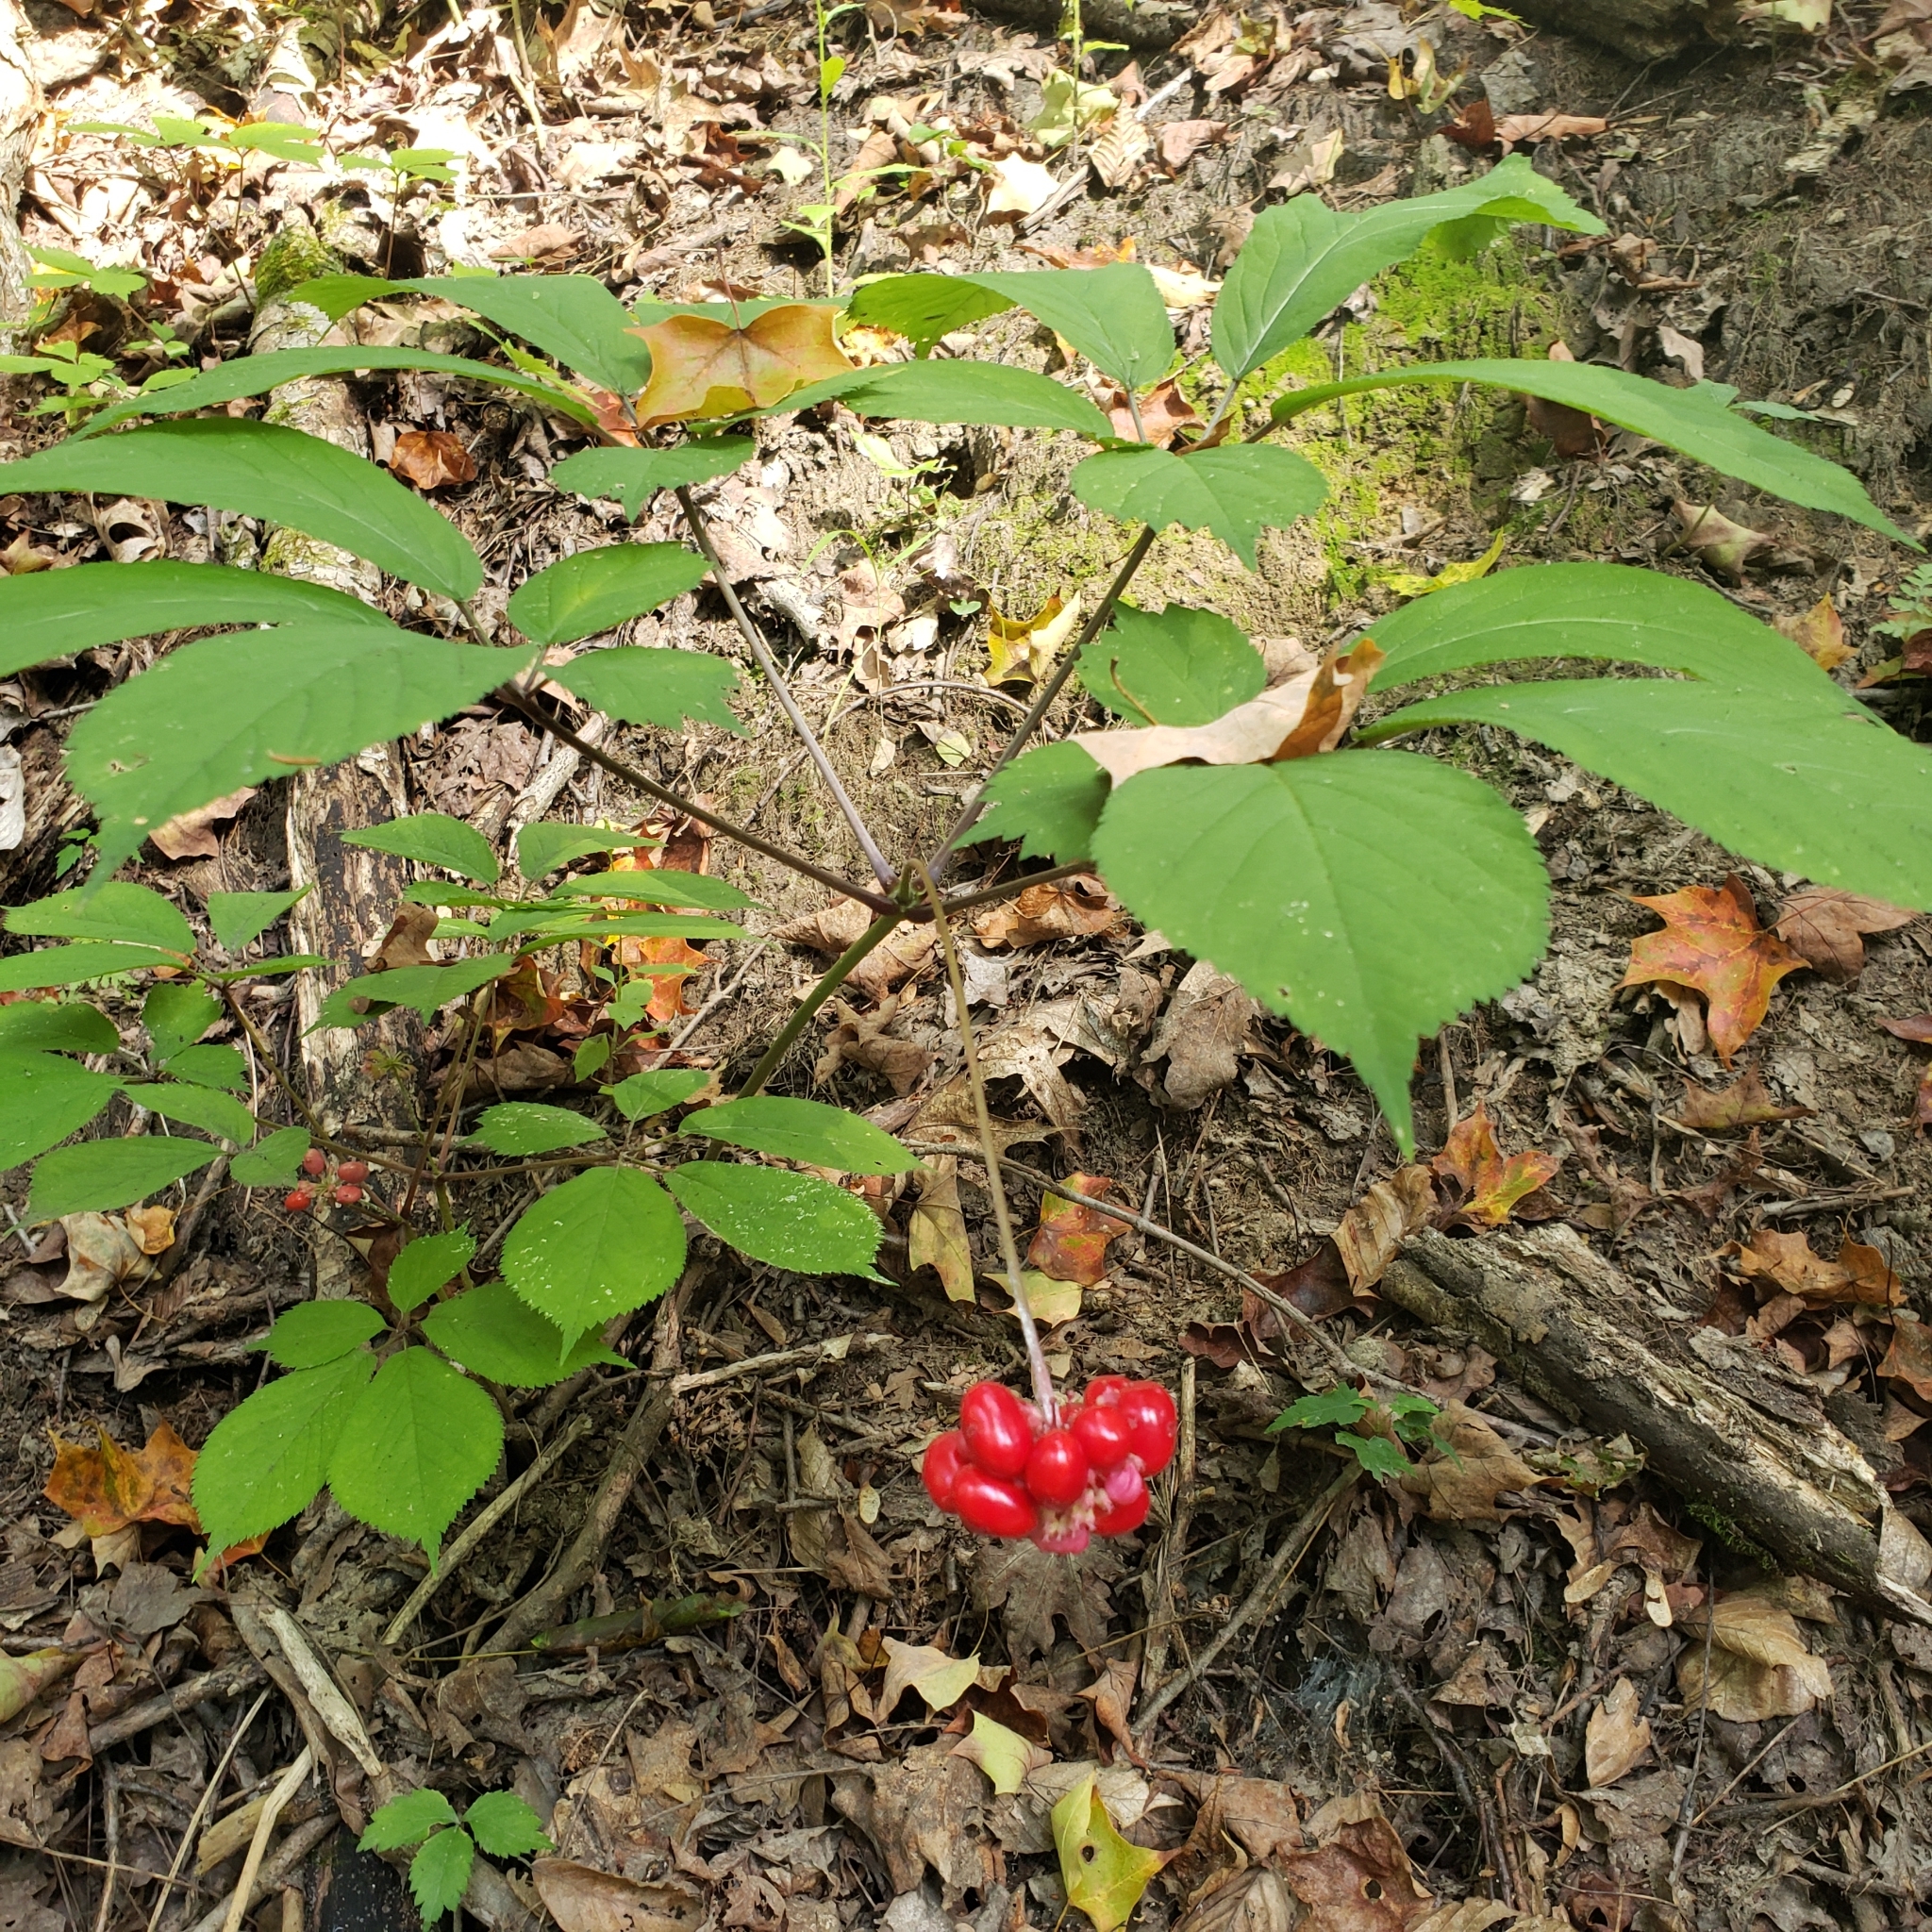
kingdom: Plantae
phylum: Tracheophyta
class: Magnoliopsida
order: Apiales
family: Araliaceae
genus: Panax
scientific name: Panax quinquefolius
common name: American ginseng
